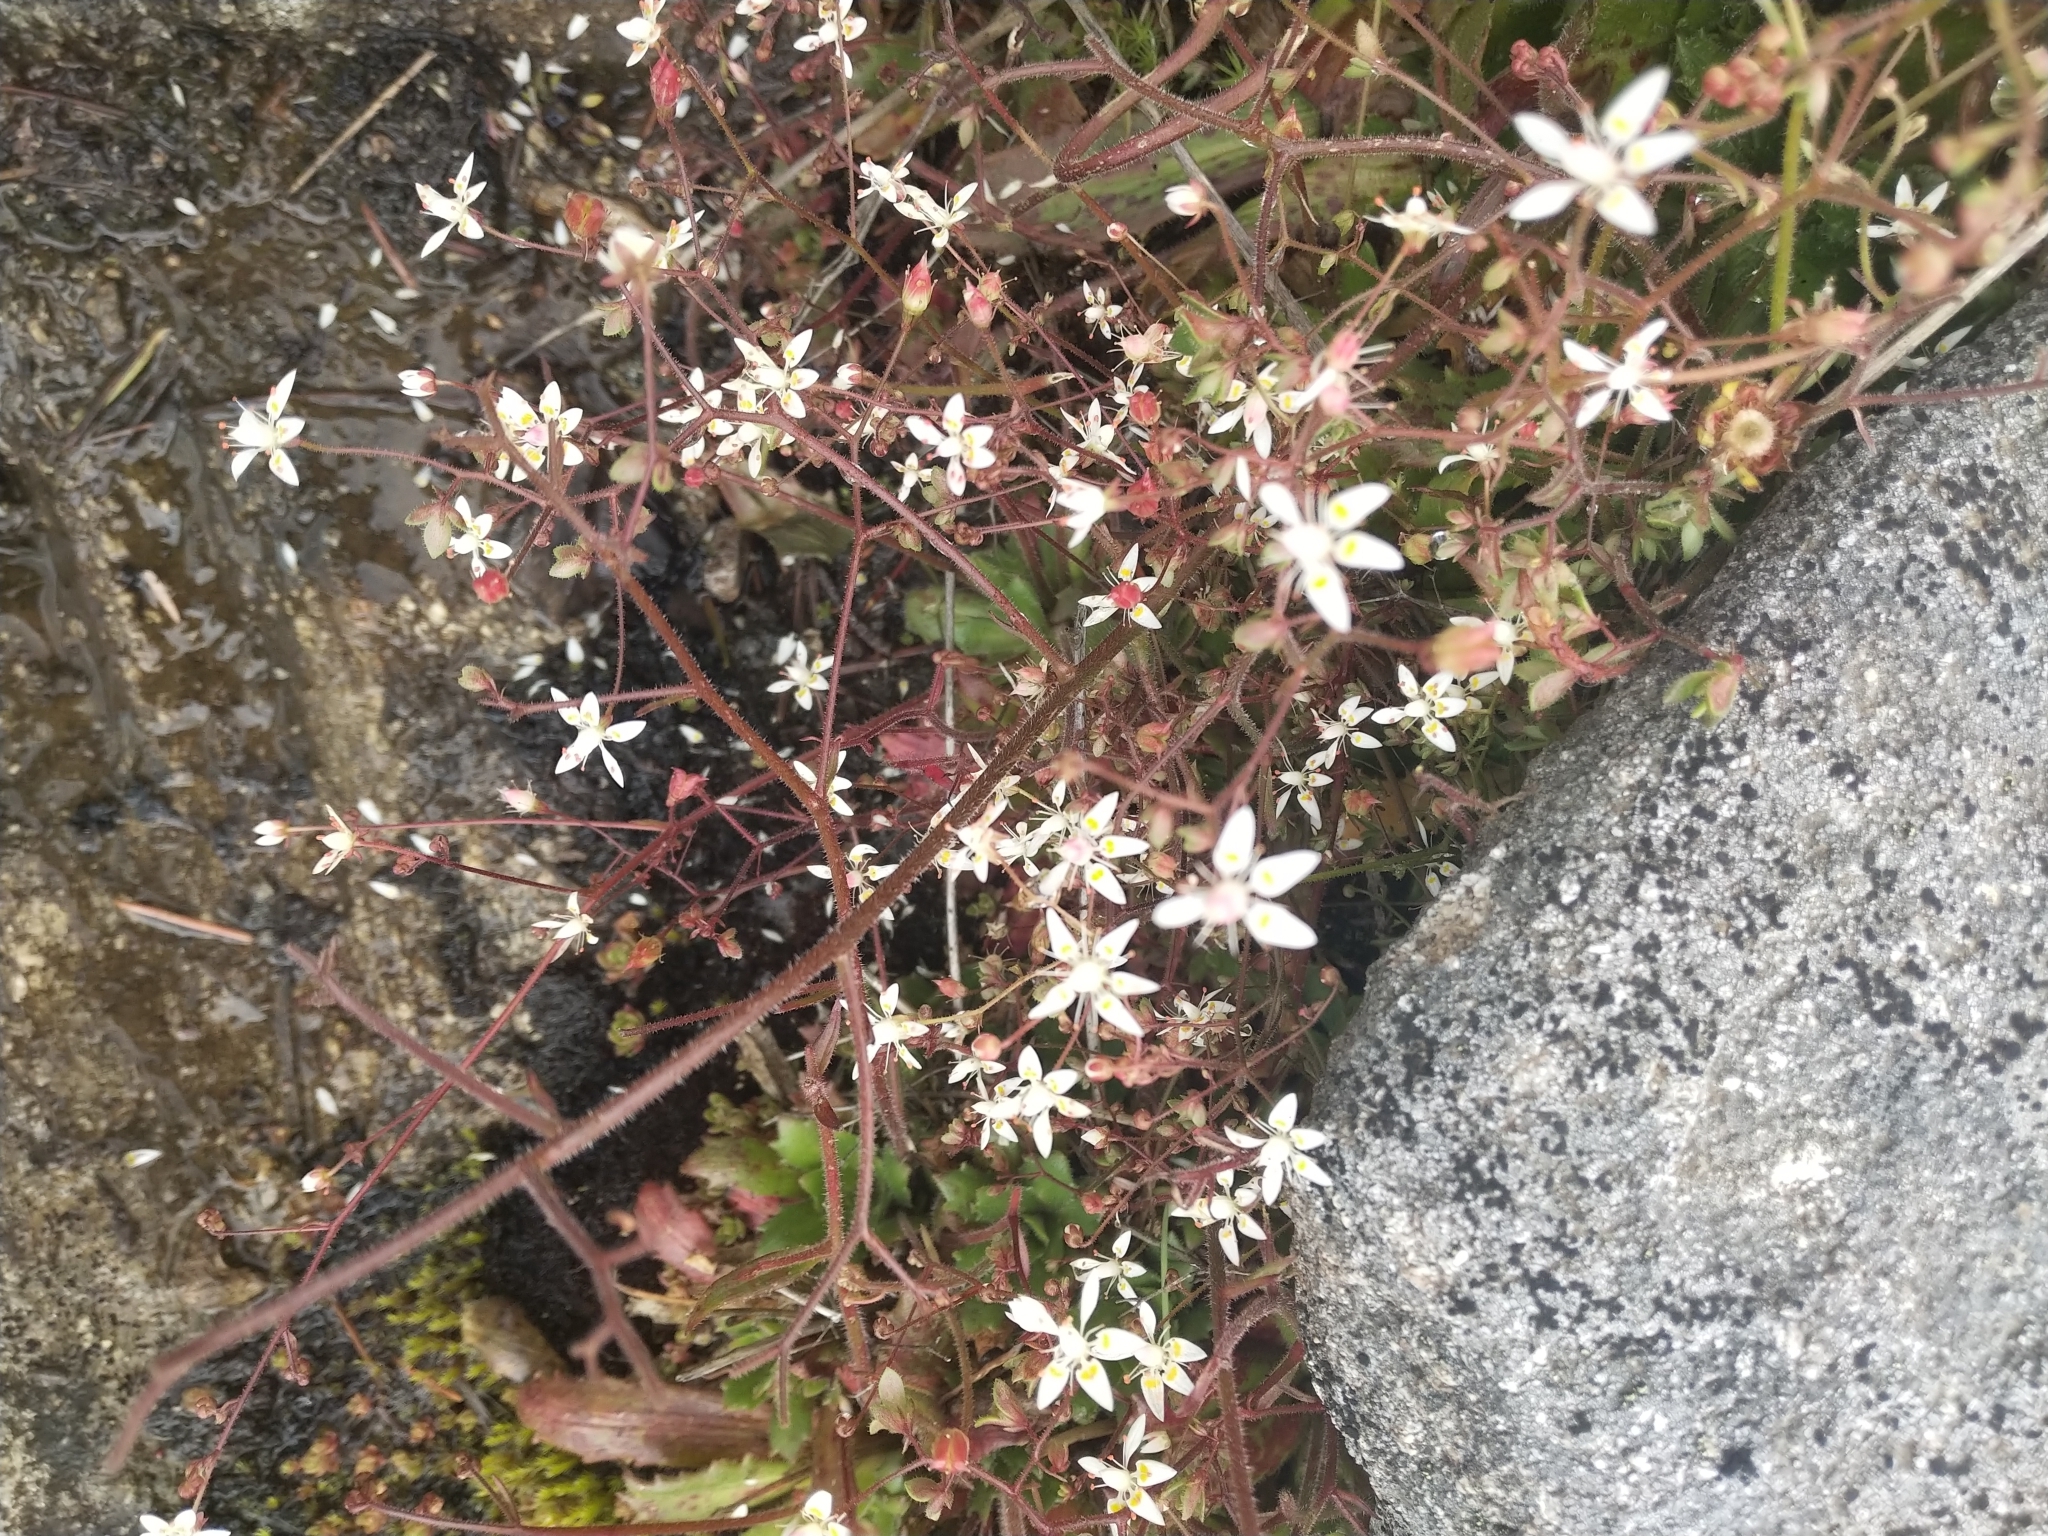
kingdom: Plantae
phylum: Tracheophyta
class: Magnoliopsida
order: Saxifragales
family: Saxifragaceae
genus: Micranthes
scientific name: Micranthes ferruginea
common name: Rusty saxifrage
